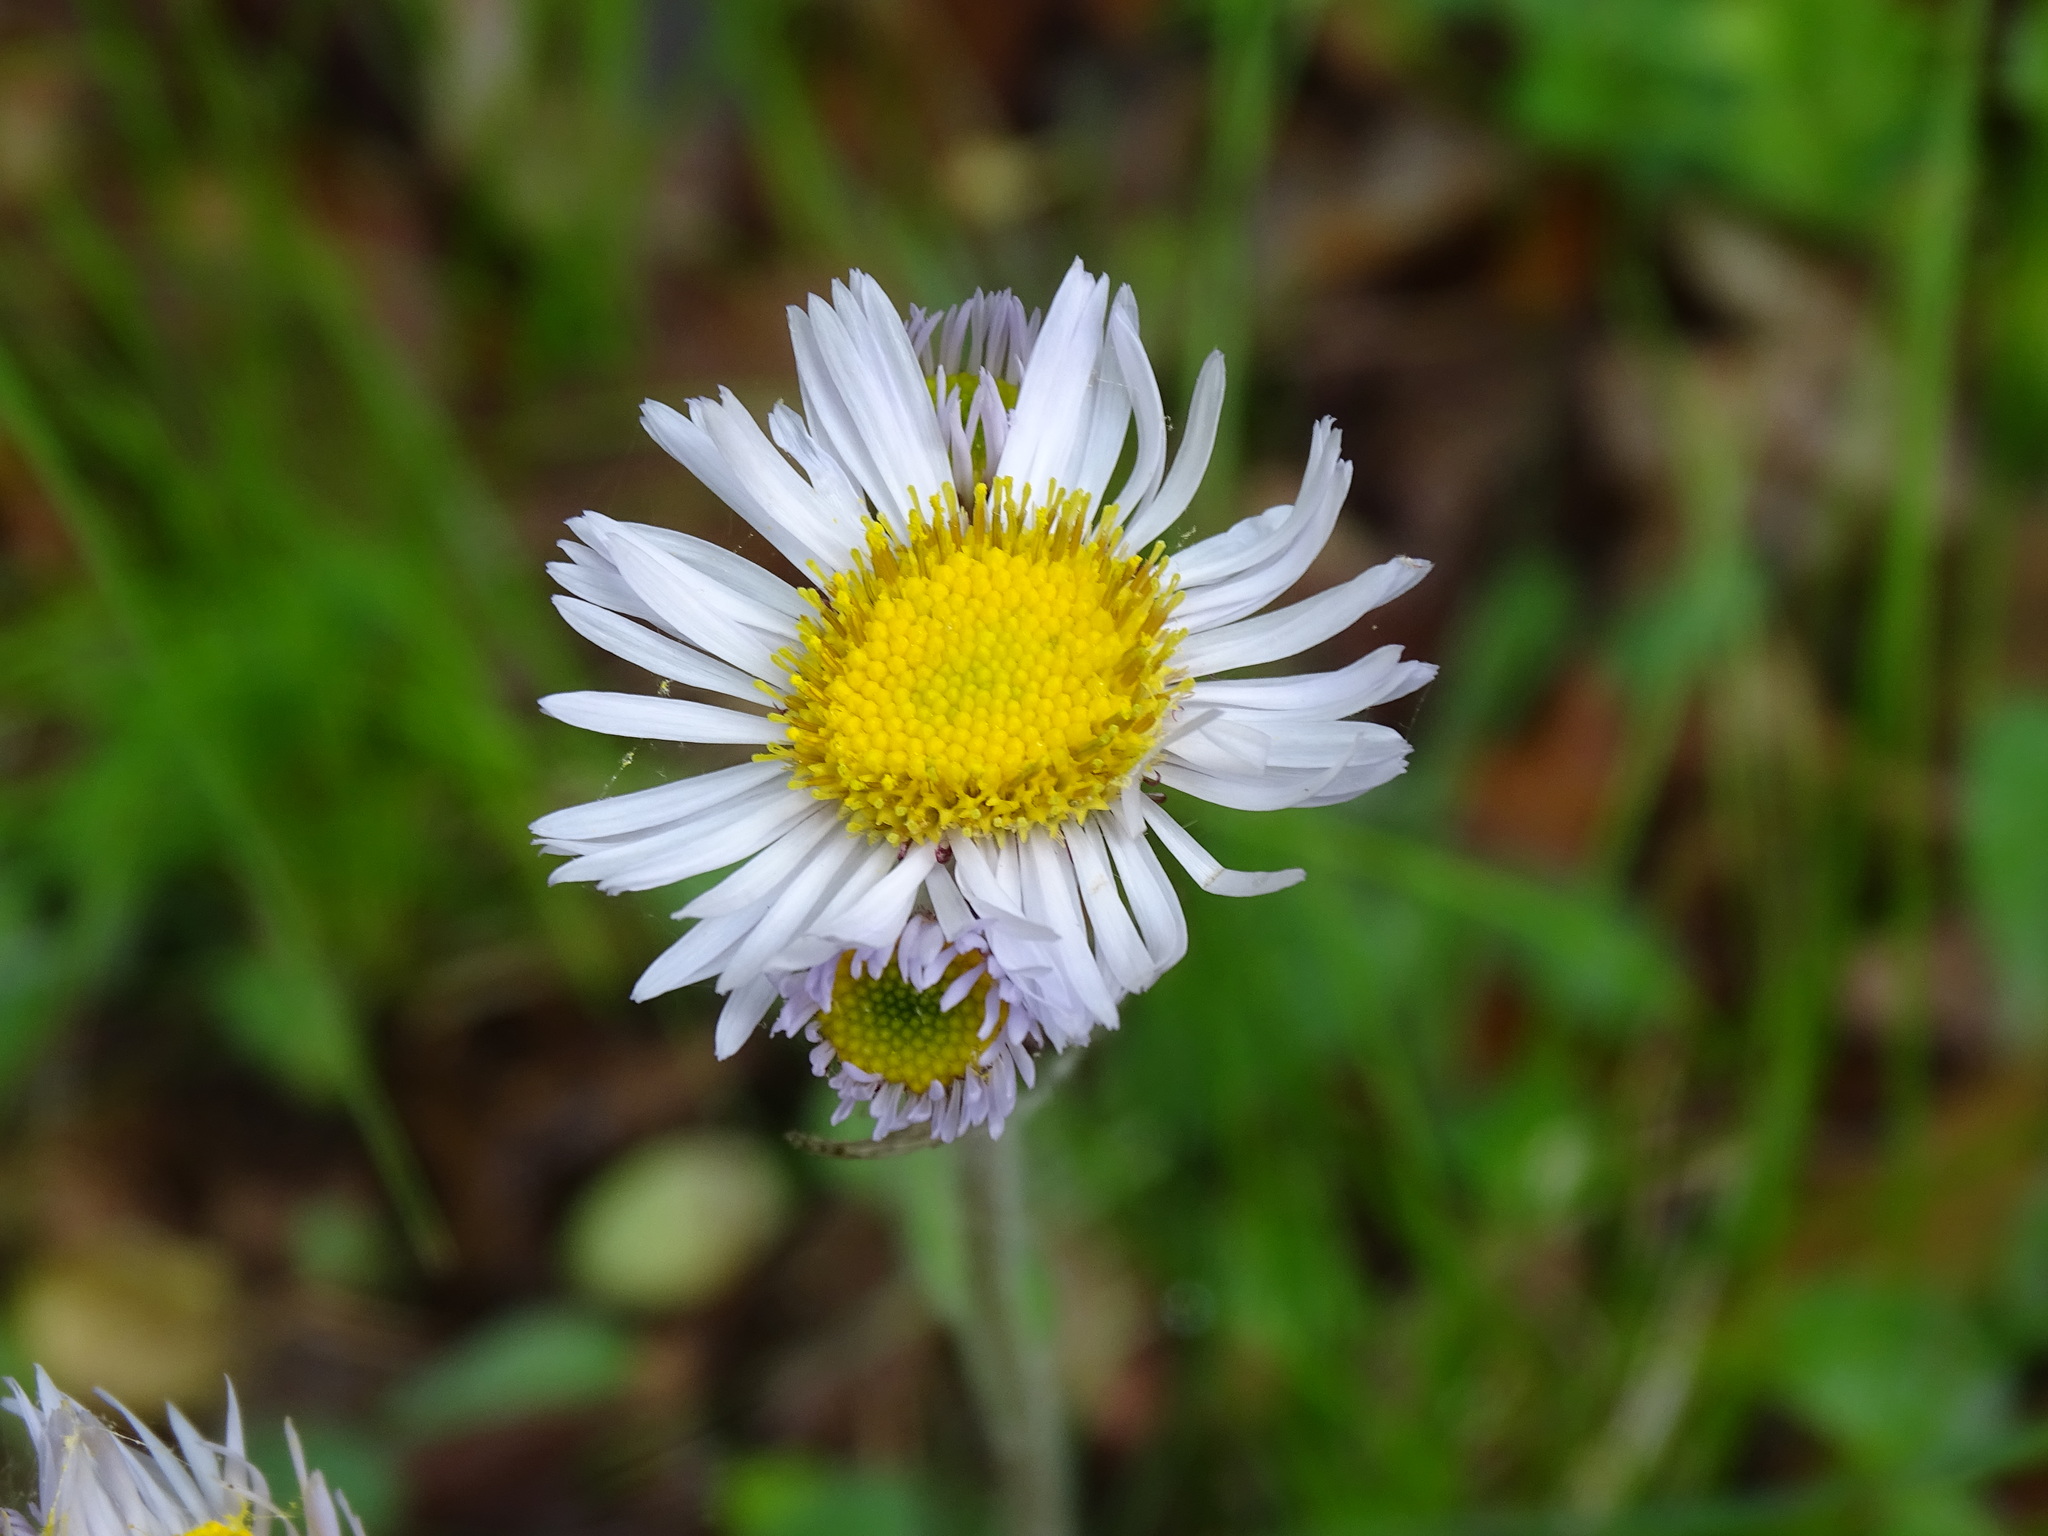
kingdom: Plantae
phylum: Tracheophyta
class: Magnoliopsida
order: Asterales
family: Asteraceae
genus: Erigeron
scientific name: Erigeron pulchellus
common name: Hairy fleabane
